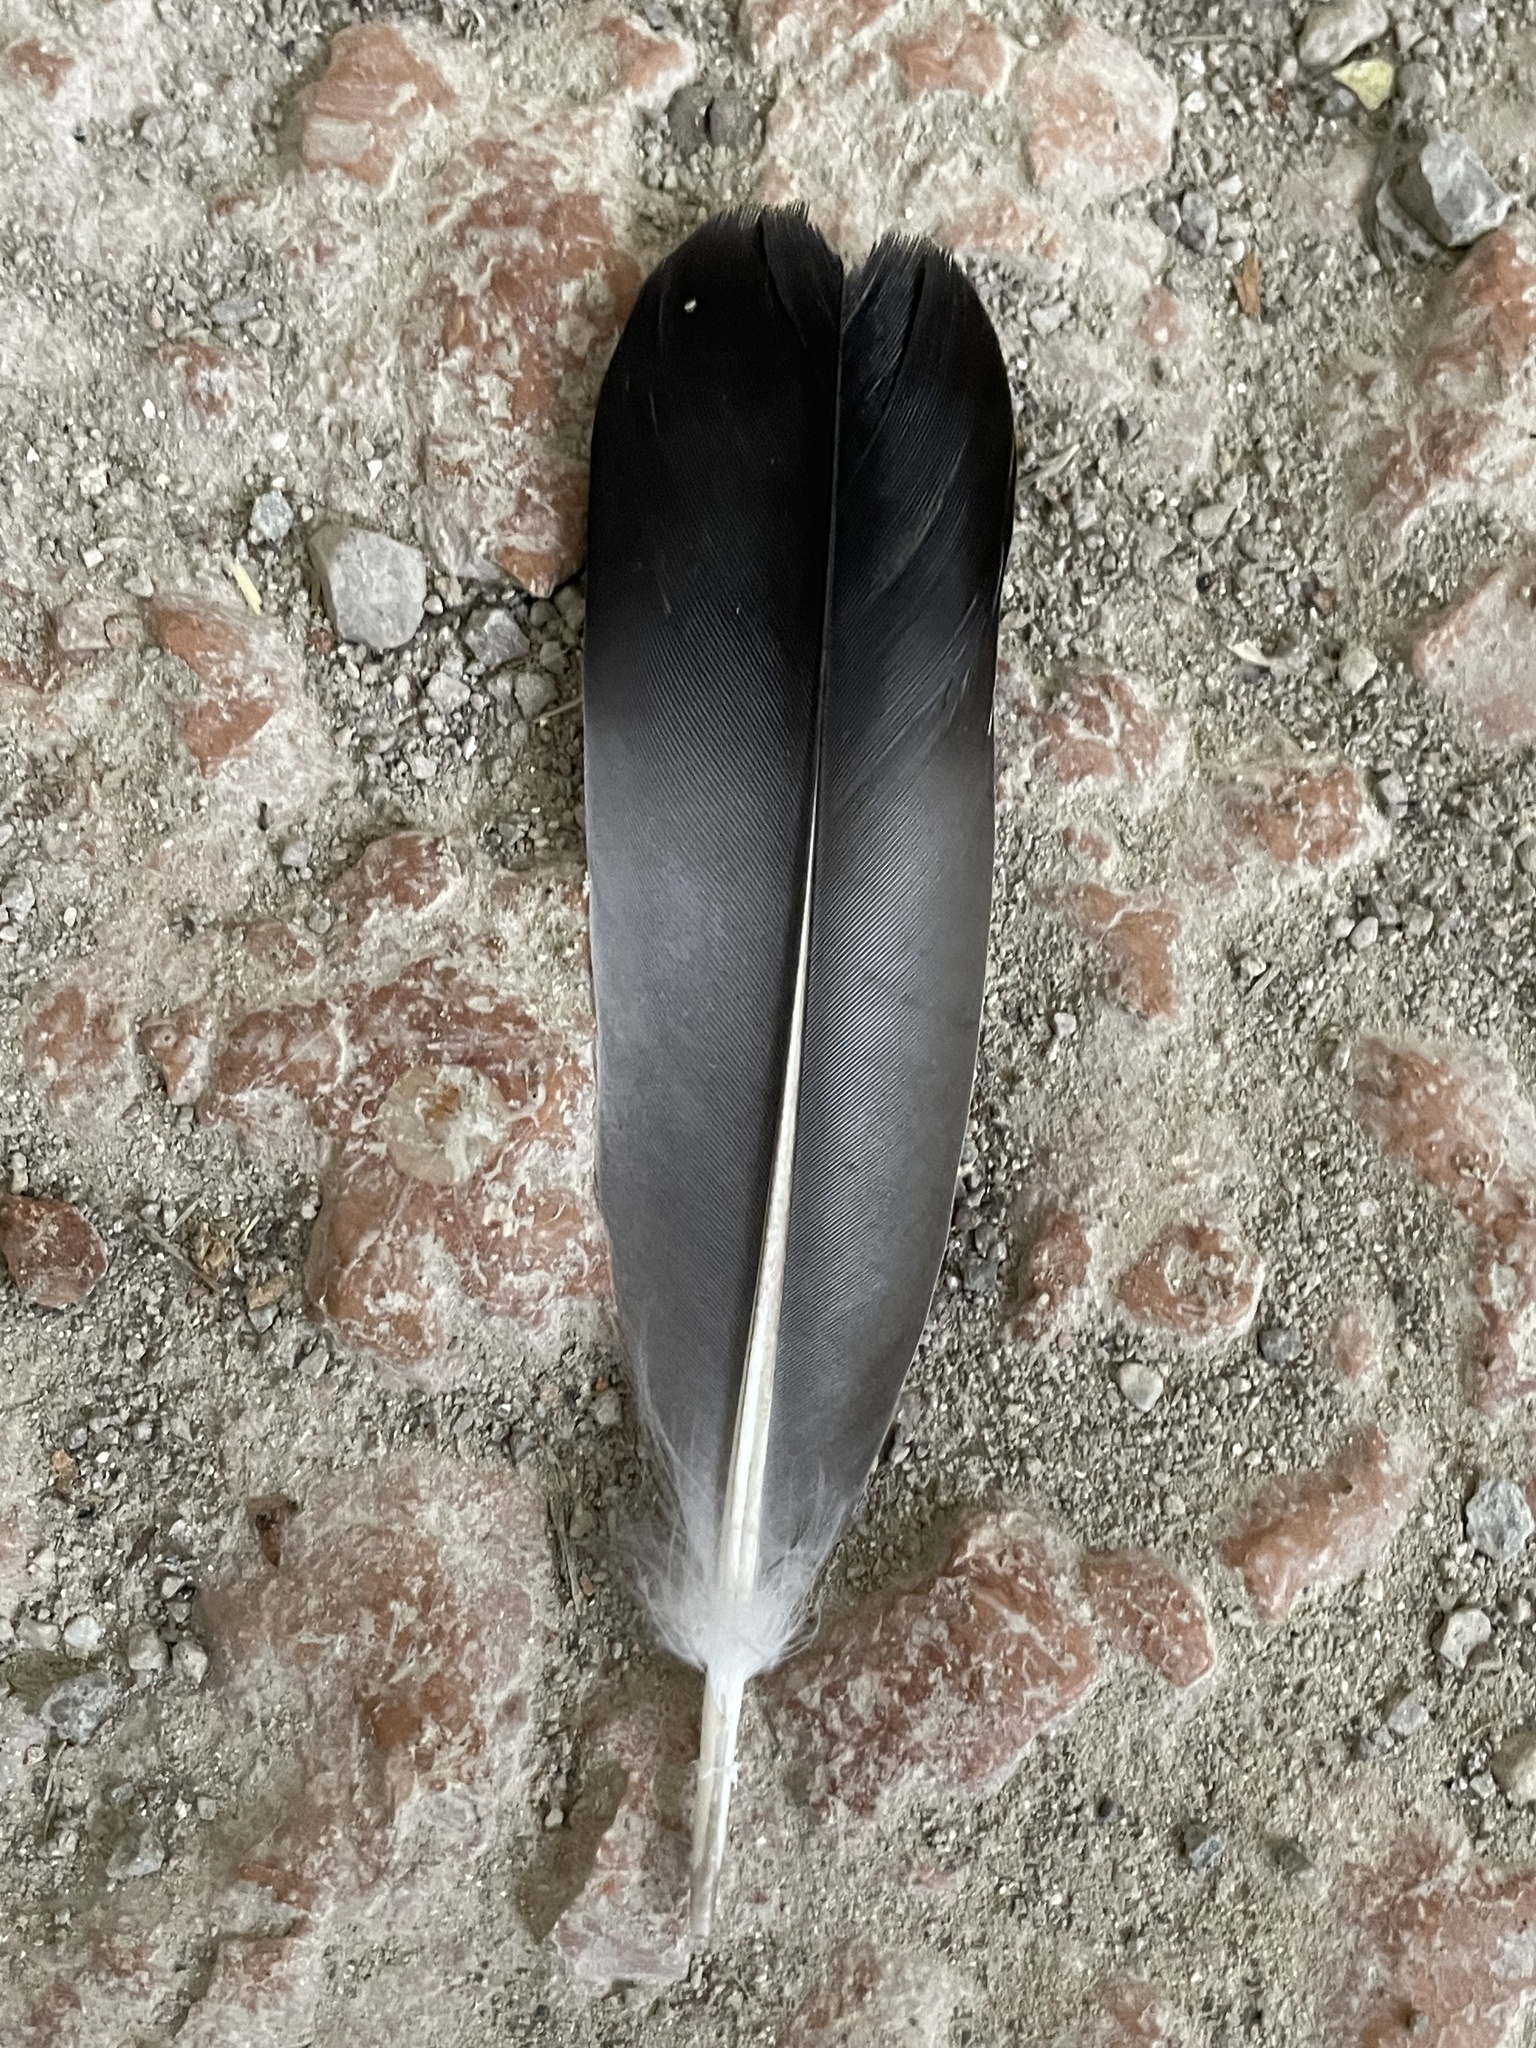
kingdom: Animalia
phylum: Chordata
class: Aves
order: Columbiformes
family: Columbidae
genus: Columba
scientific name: Columba livia
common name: Rock pigeon
